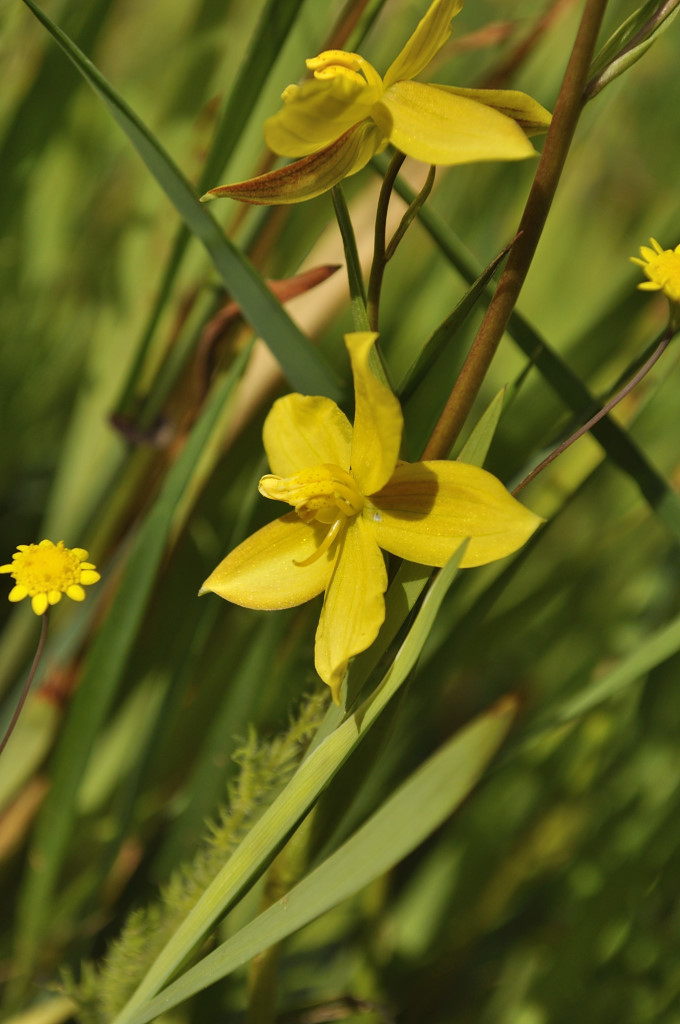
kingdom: Plantae
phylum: Tracheophyta
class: Liliopsida
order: Asparagales
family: Tecophilaeaceae
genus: Cyanella
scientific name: Cyanella lutea
